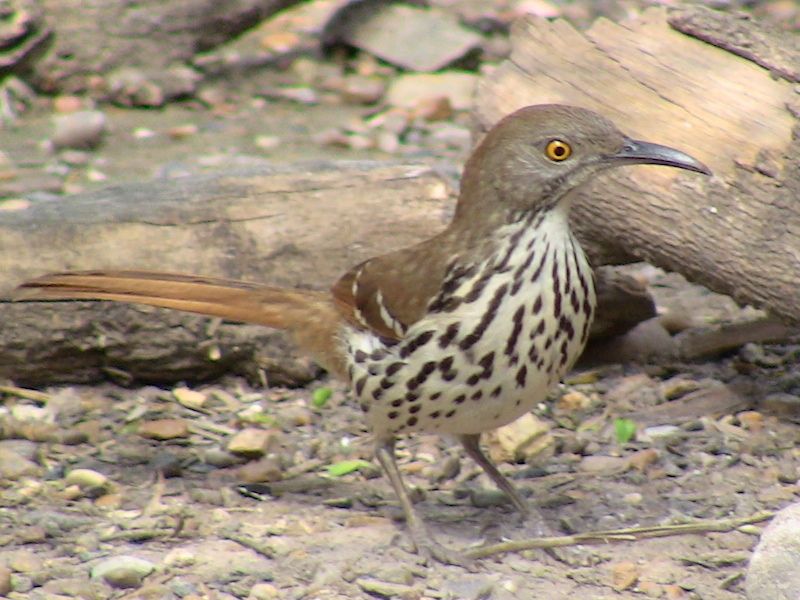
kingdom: Animalia
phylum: Chordata
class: Aves
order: Passeriformes
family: Mimidae
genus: Toxostoma
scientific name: Toxostoma longirostre
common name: Long-billed thrasher
